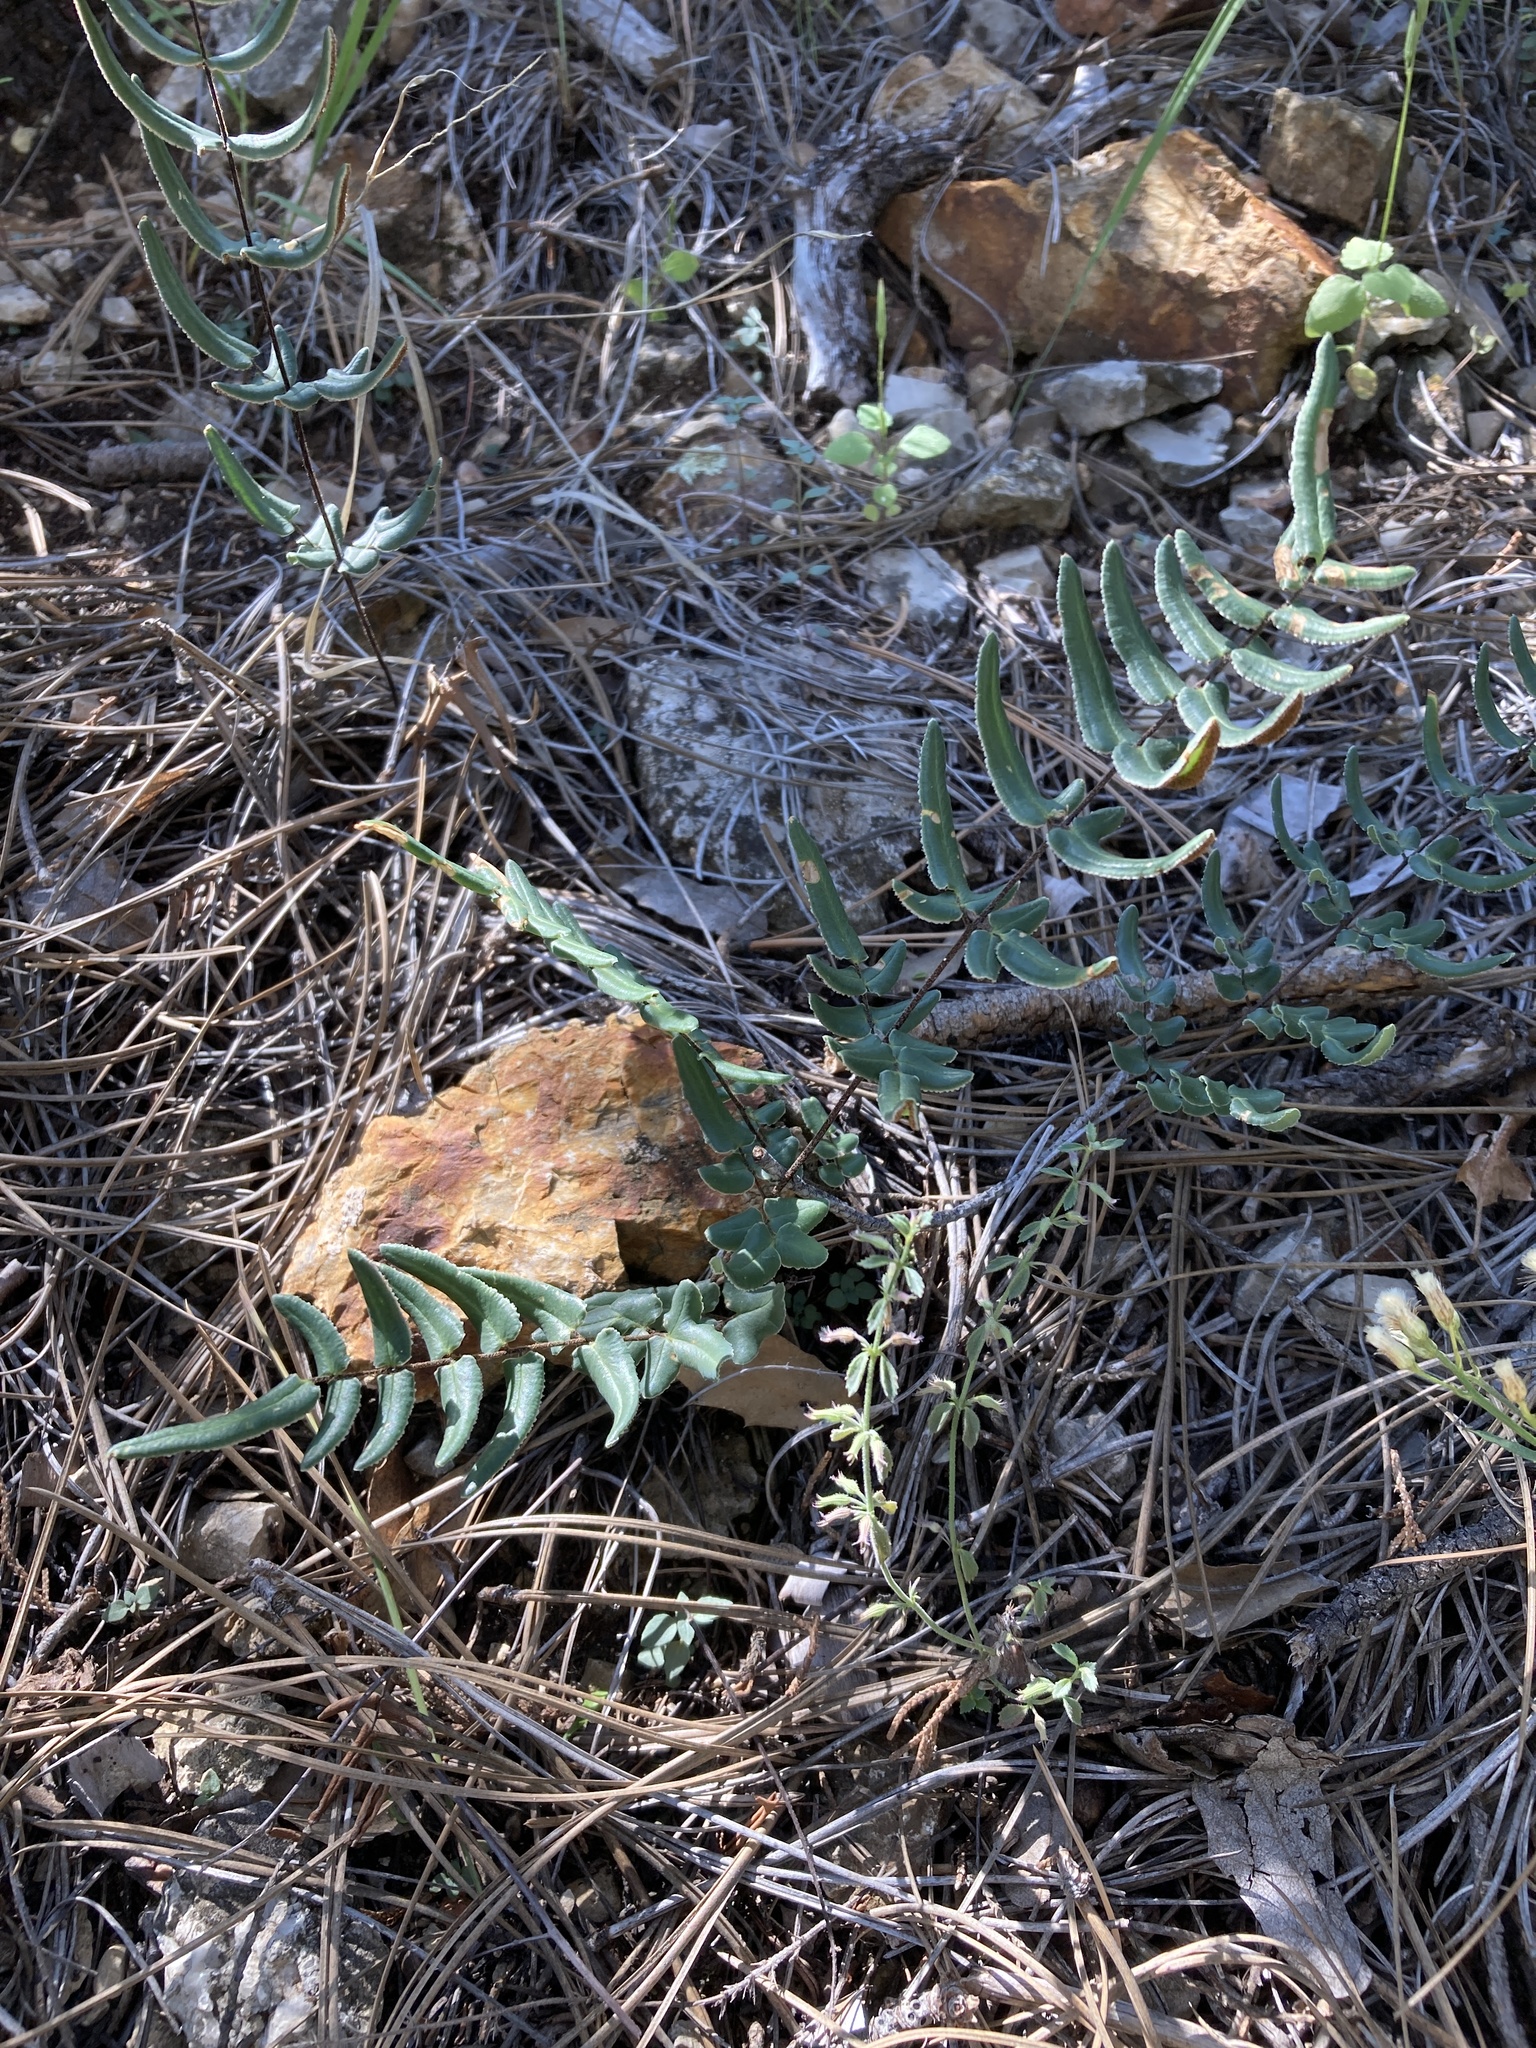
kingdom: Plantae
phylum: Tracheophyta
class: Polypodiopsida
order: Polypodiales
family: Pteridaceae
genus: Pellaea
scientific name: Pellaea atropurpurea
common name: Hairy cliffbrake
